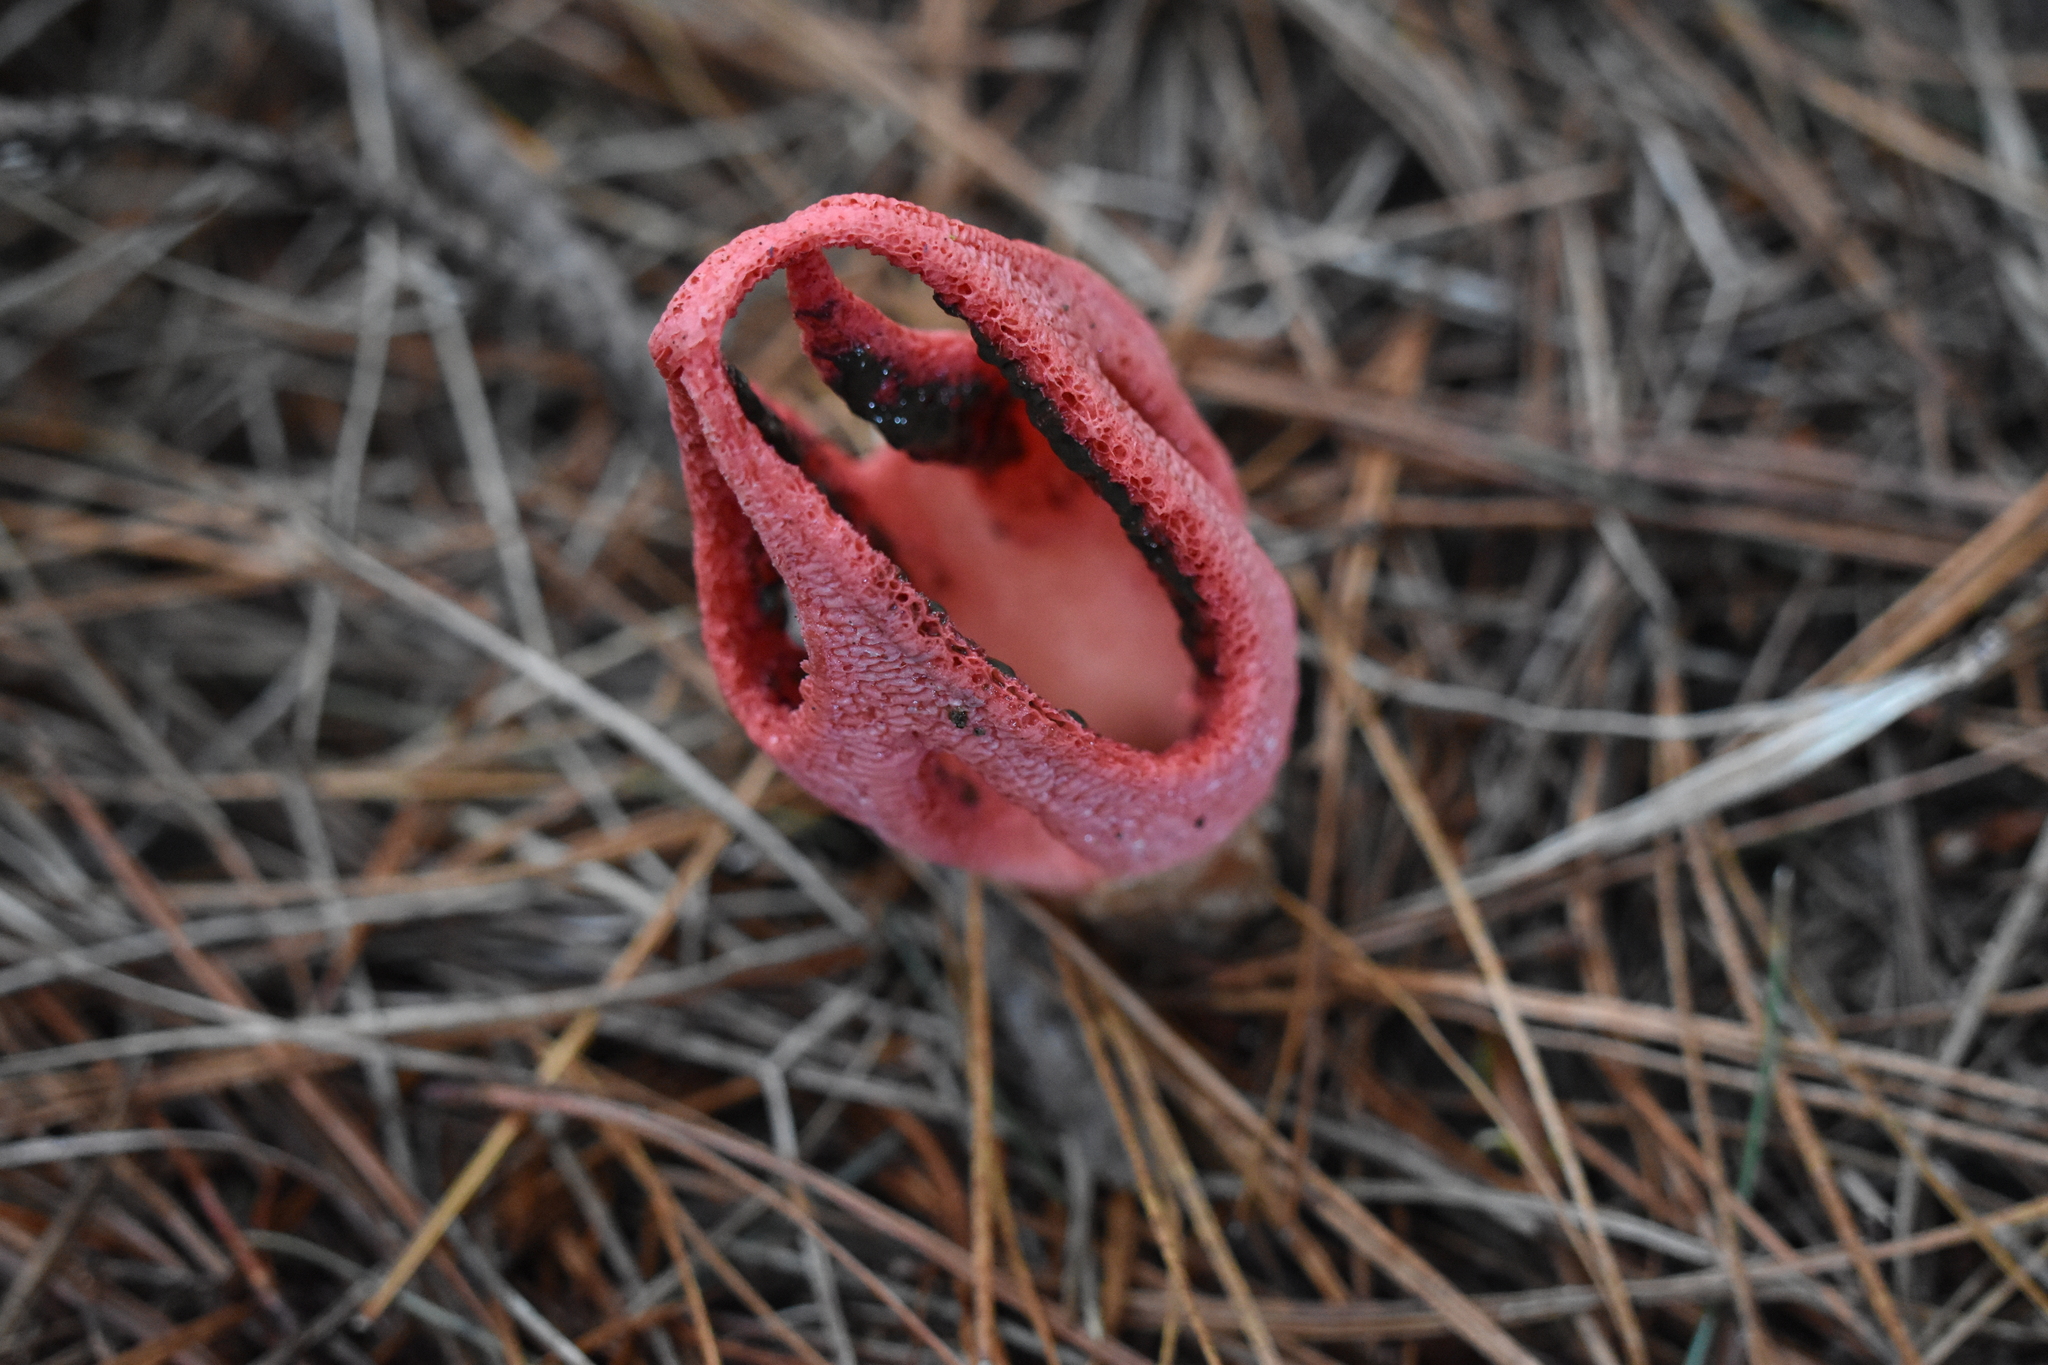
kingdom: Fungi
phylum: Basidiomycota
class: Agaricomycetes
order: Phallales
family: Phallaceae
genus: Clathrus
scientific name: Clathrus archeri
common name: Devil's fingers
